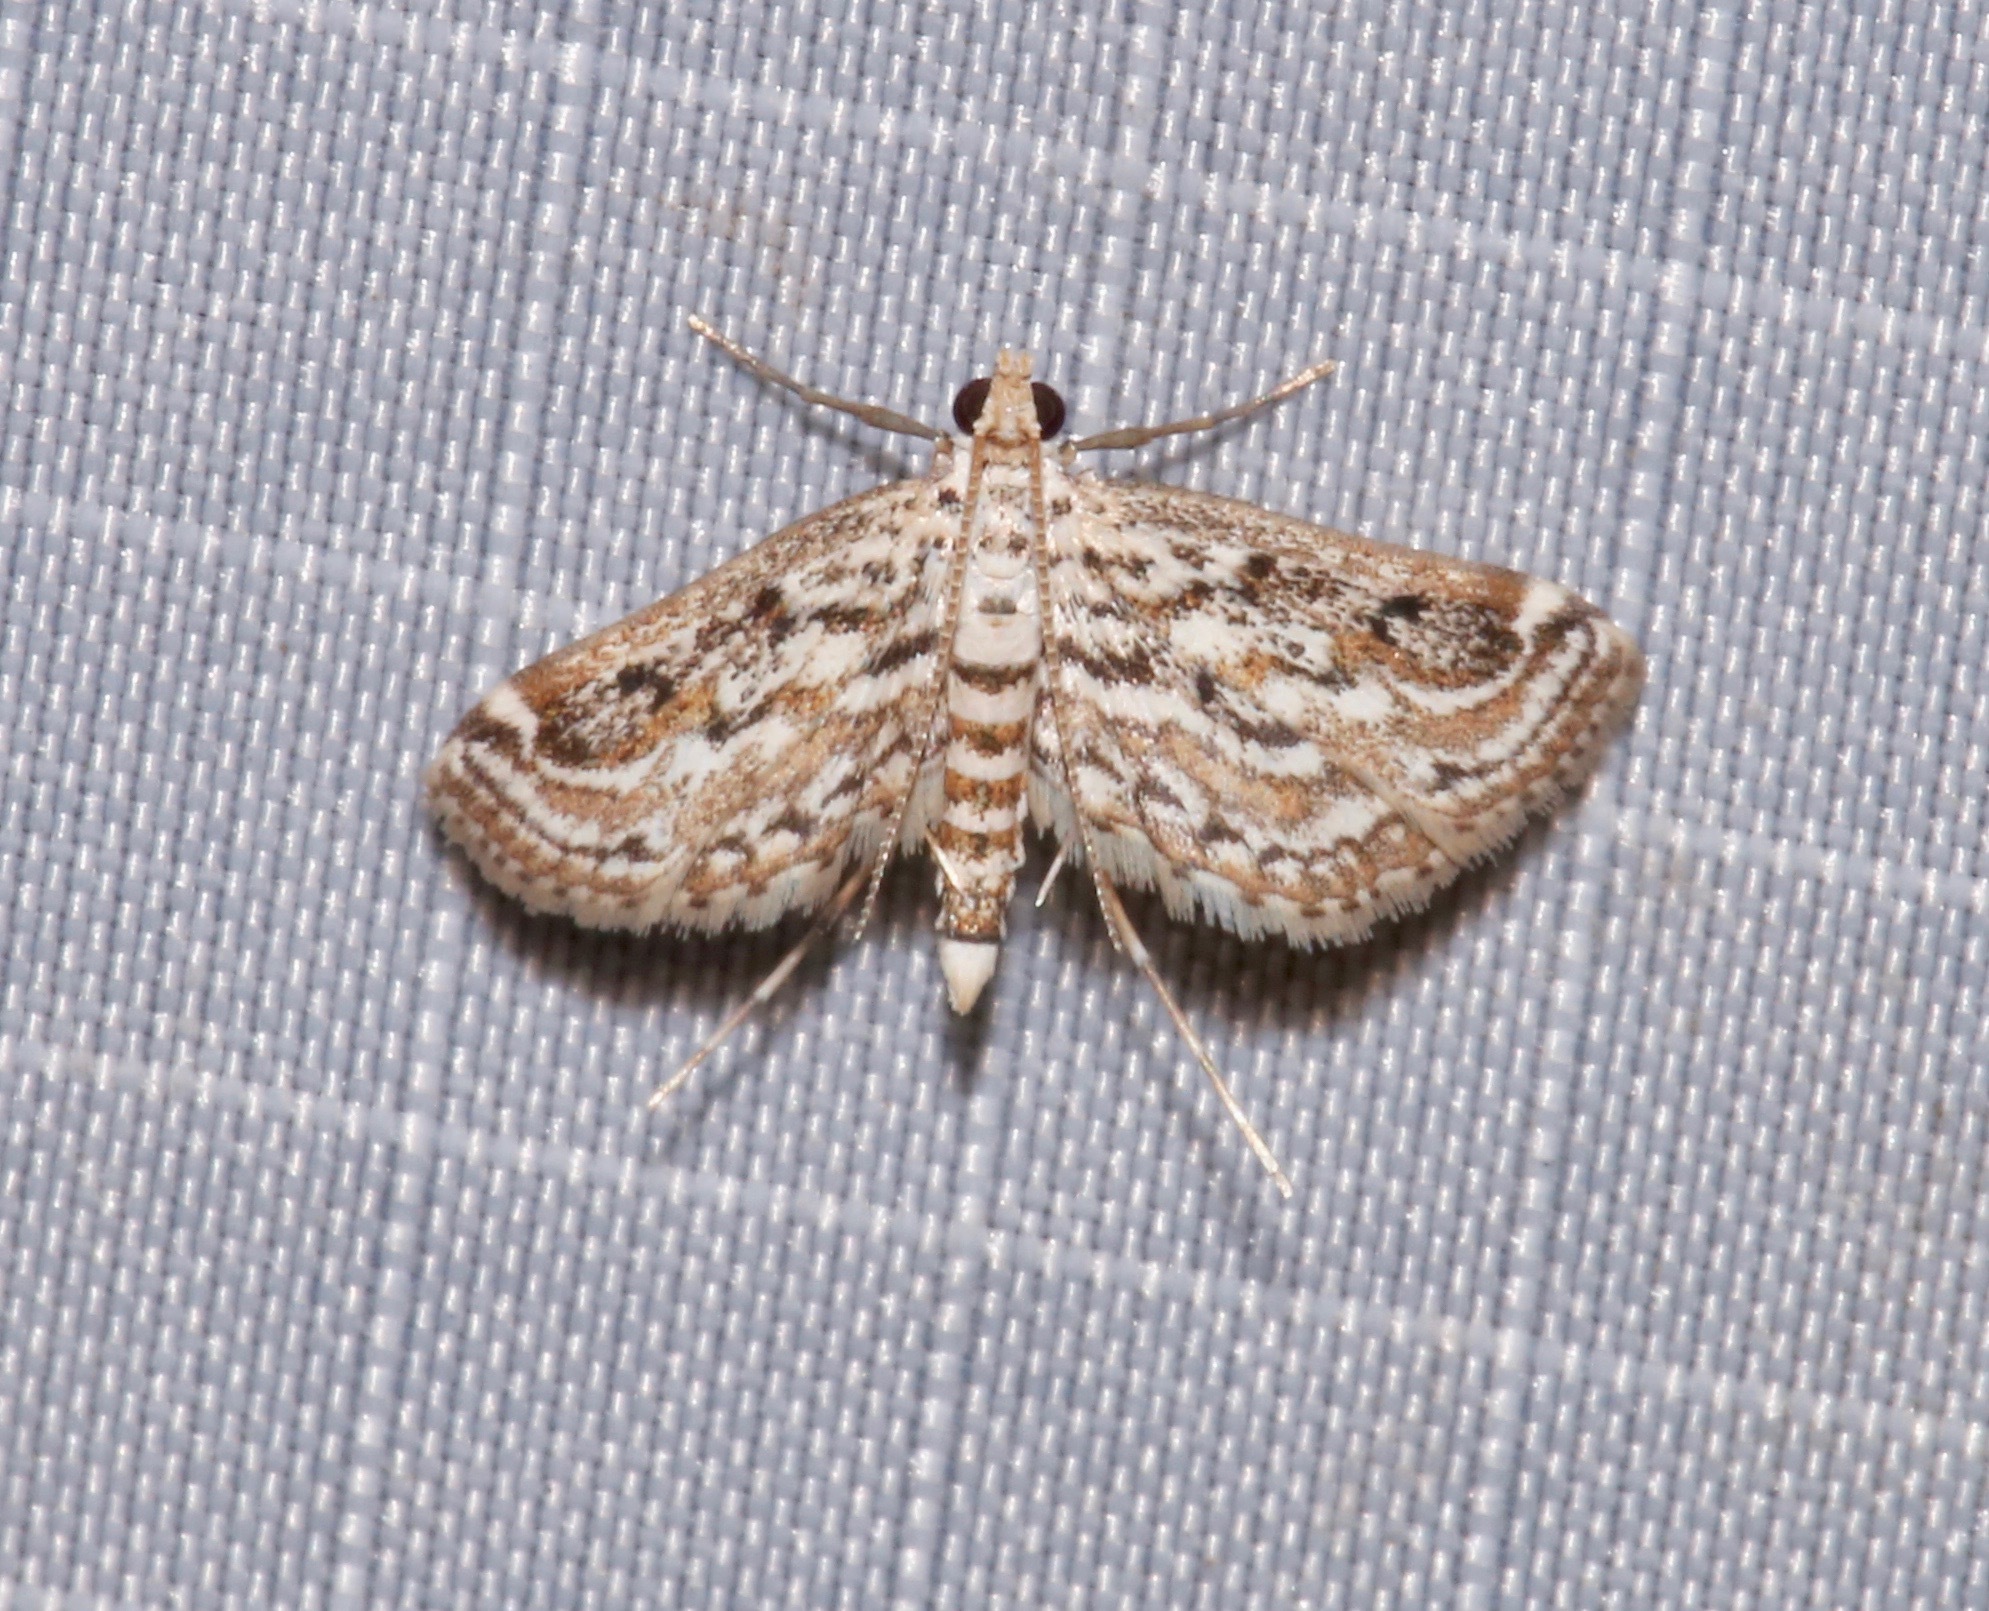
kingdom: Animalia
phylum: Arthropoda
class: Insecta
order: Lepidoptera
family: Crambidae
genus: Parapoynx
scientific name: Parapoynx allionealis
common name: Bladderwort casemaker
